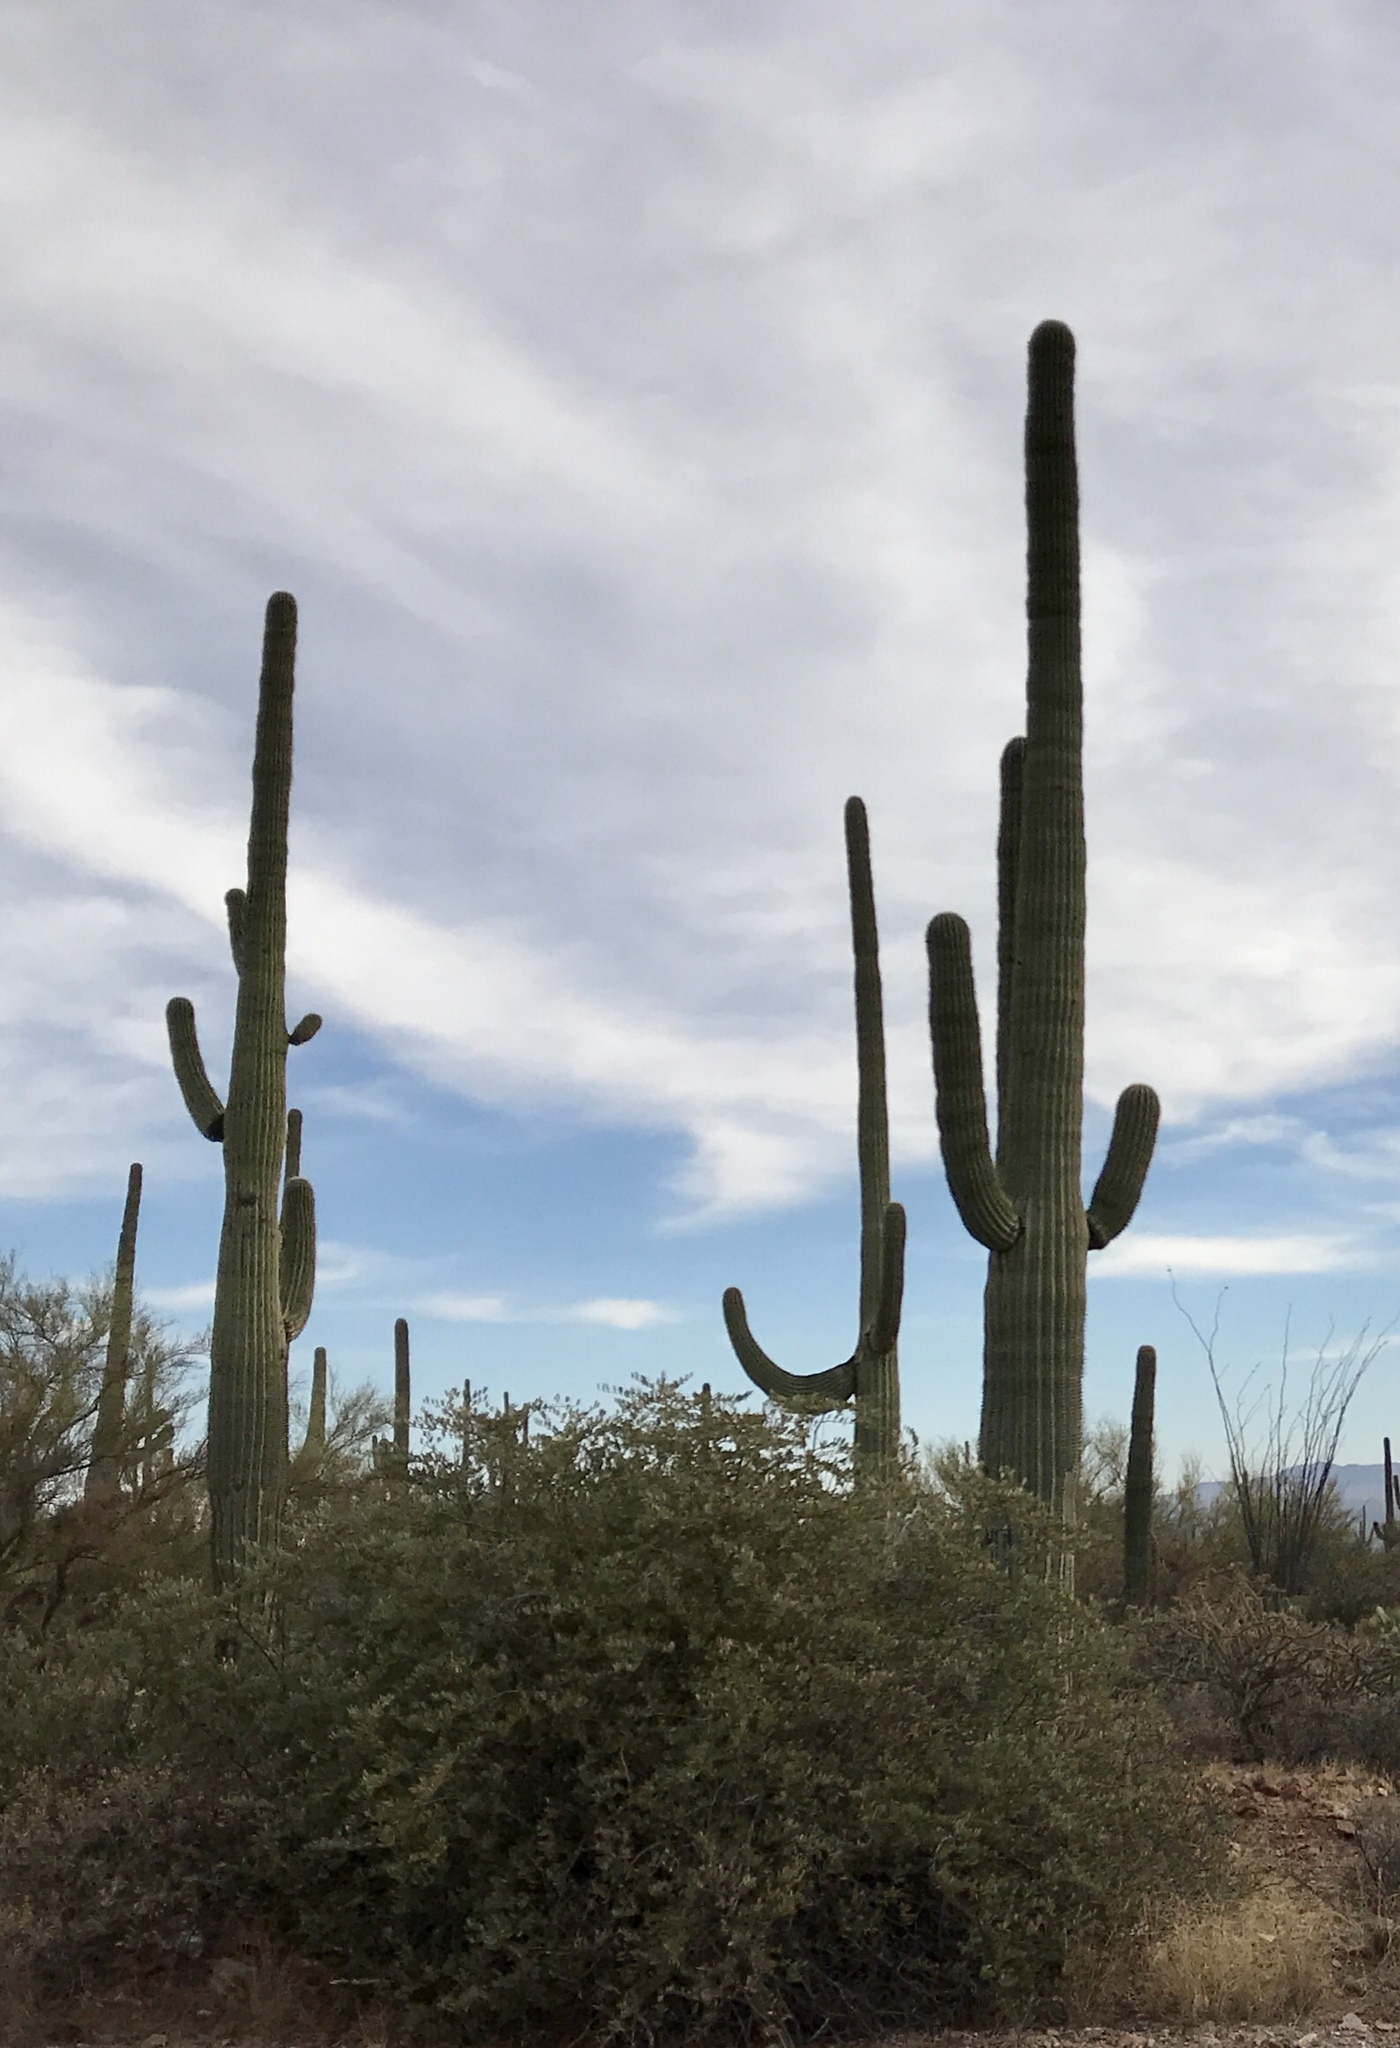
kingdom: Plantae
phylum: Tracheophyta
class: Magnoliopsida
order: Caryophyllales
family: Cactaceae
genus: Carnegiea
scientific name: Carnegiea gigantea
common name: Saguaro
